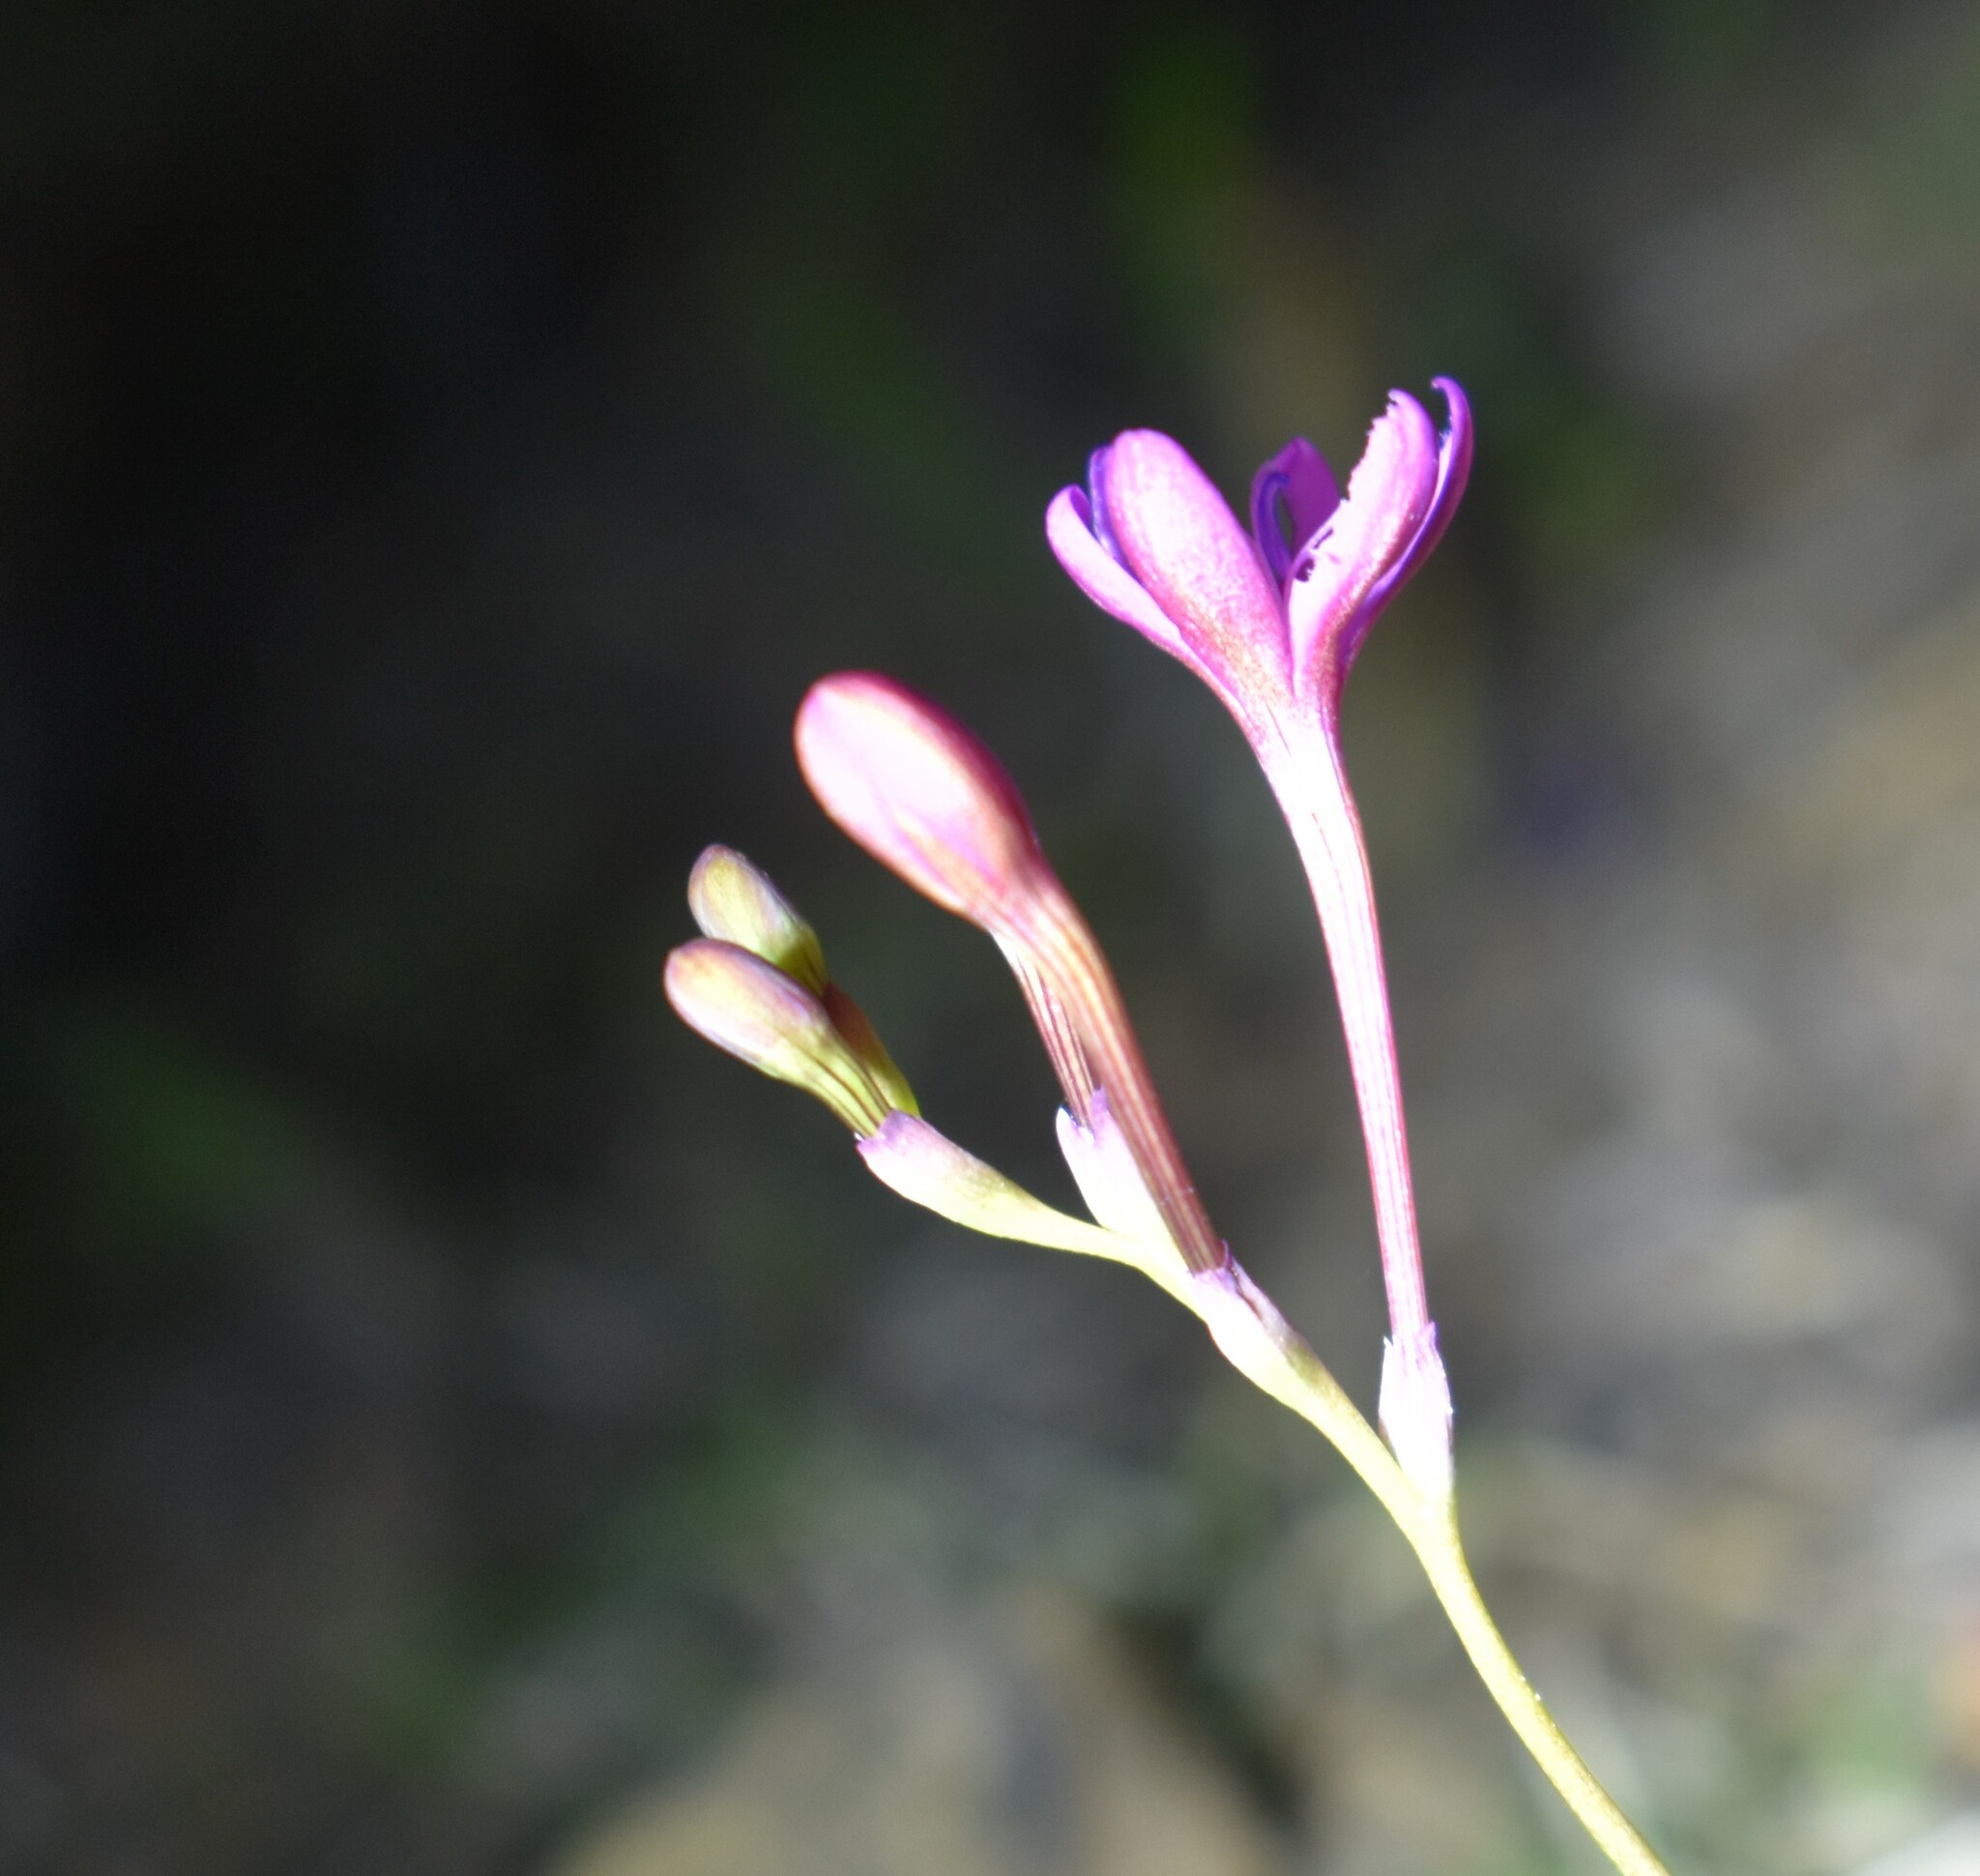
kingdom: Plantae
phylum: Tracheophyta
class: Liliopsida
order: Asparagales
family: Iridaceae
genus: Freesia
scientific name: Freesia verrucosa
